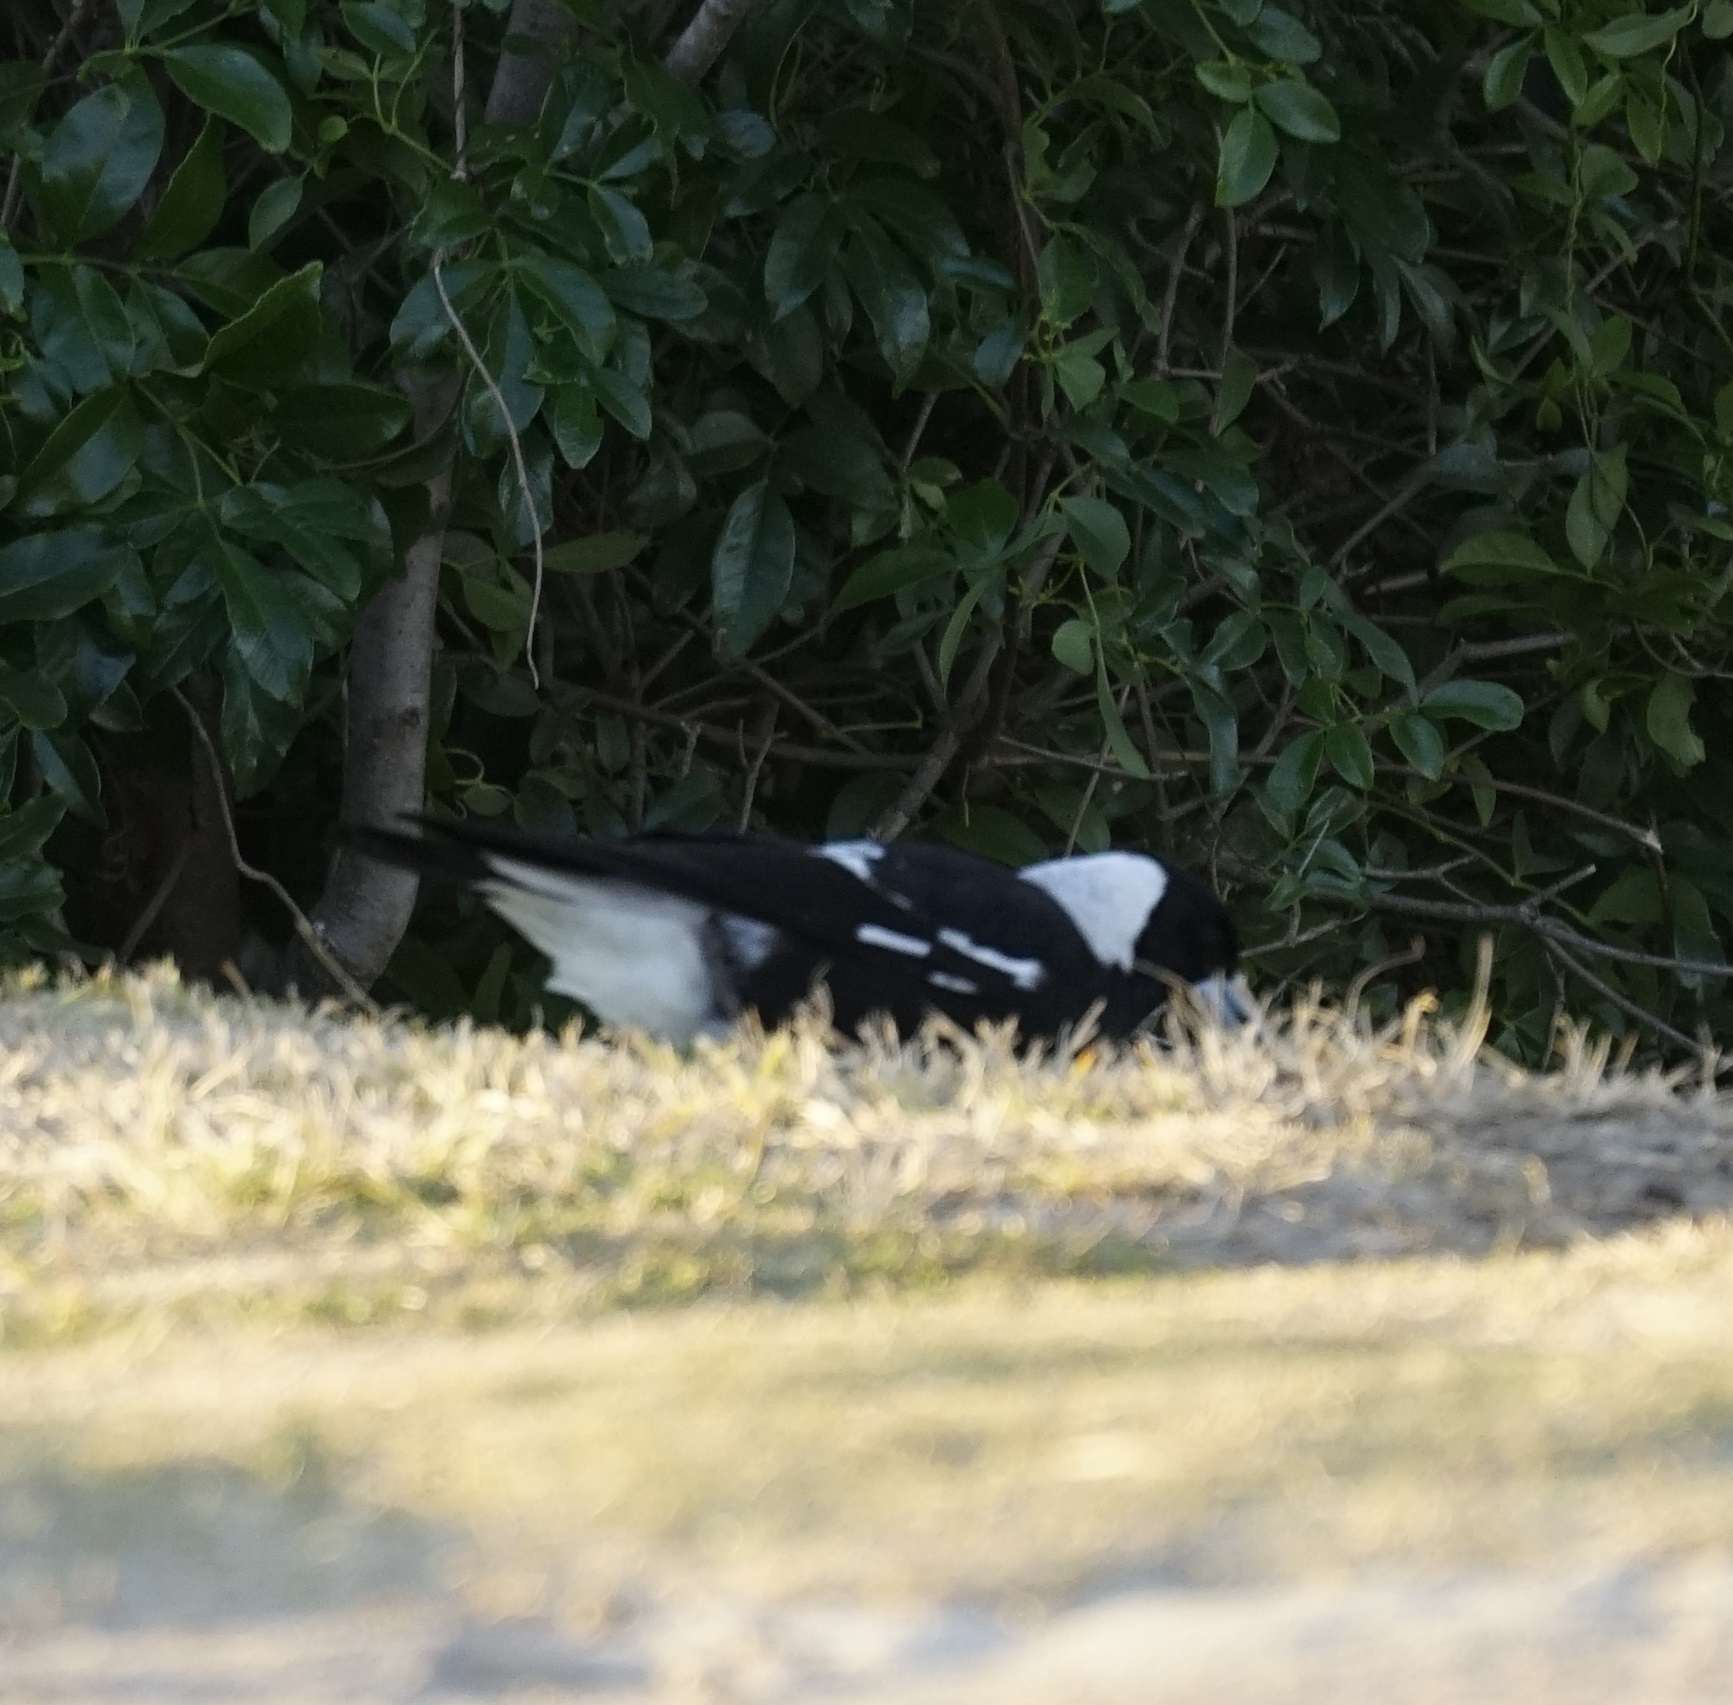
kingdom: Animalia
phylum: Chordata
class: Aves
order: Passeriformes
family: Cracticidae
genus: Gymnorhina
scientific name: Gymnorhina tibicen
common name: Australian magpie
